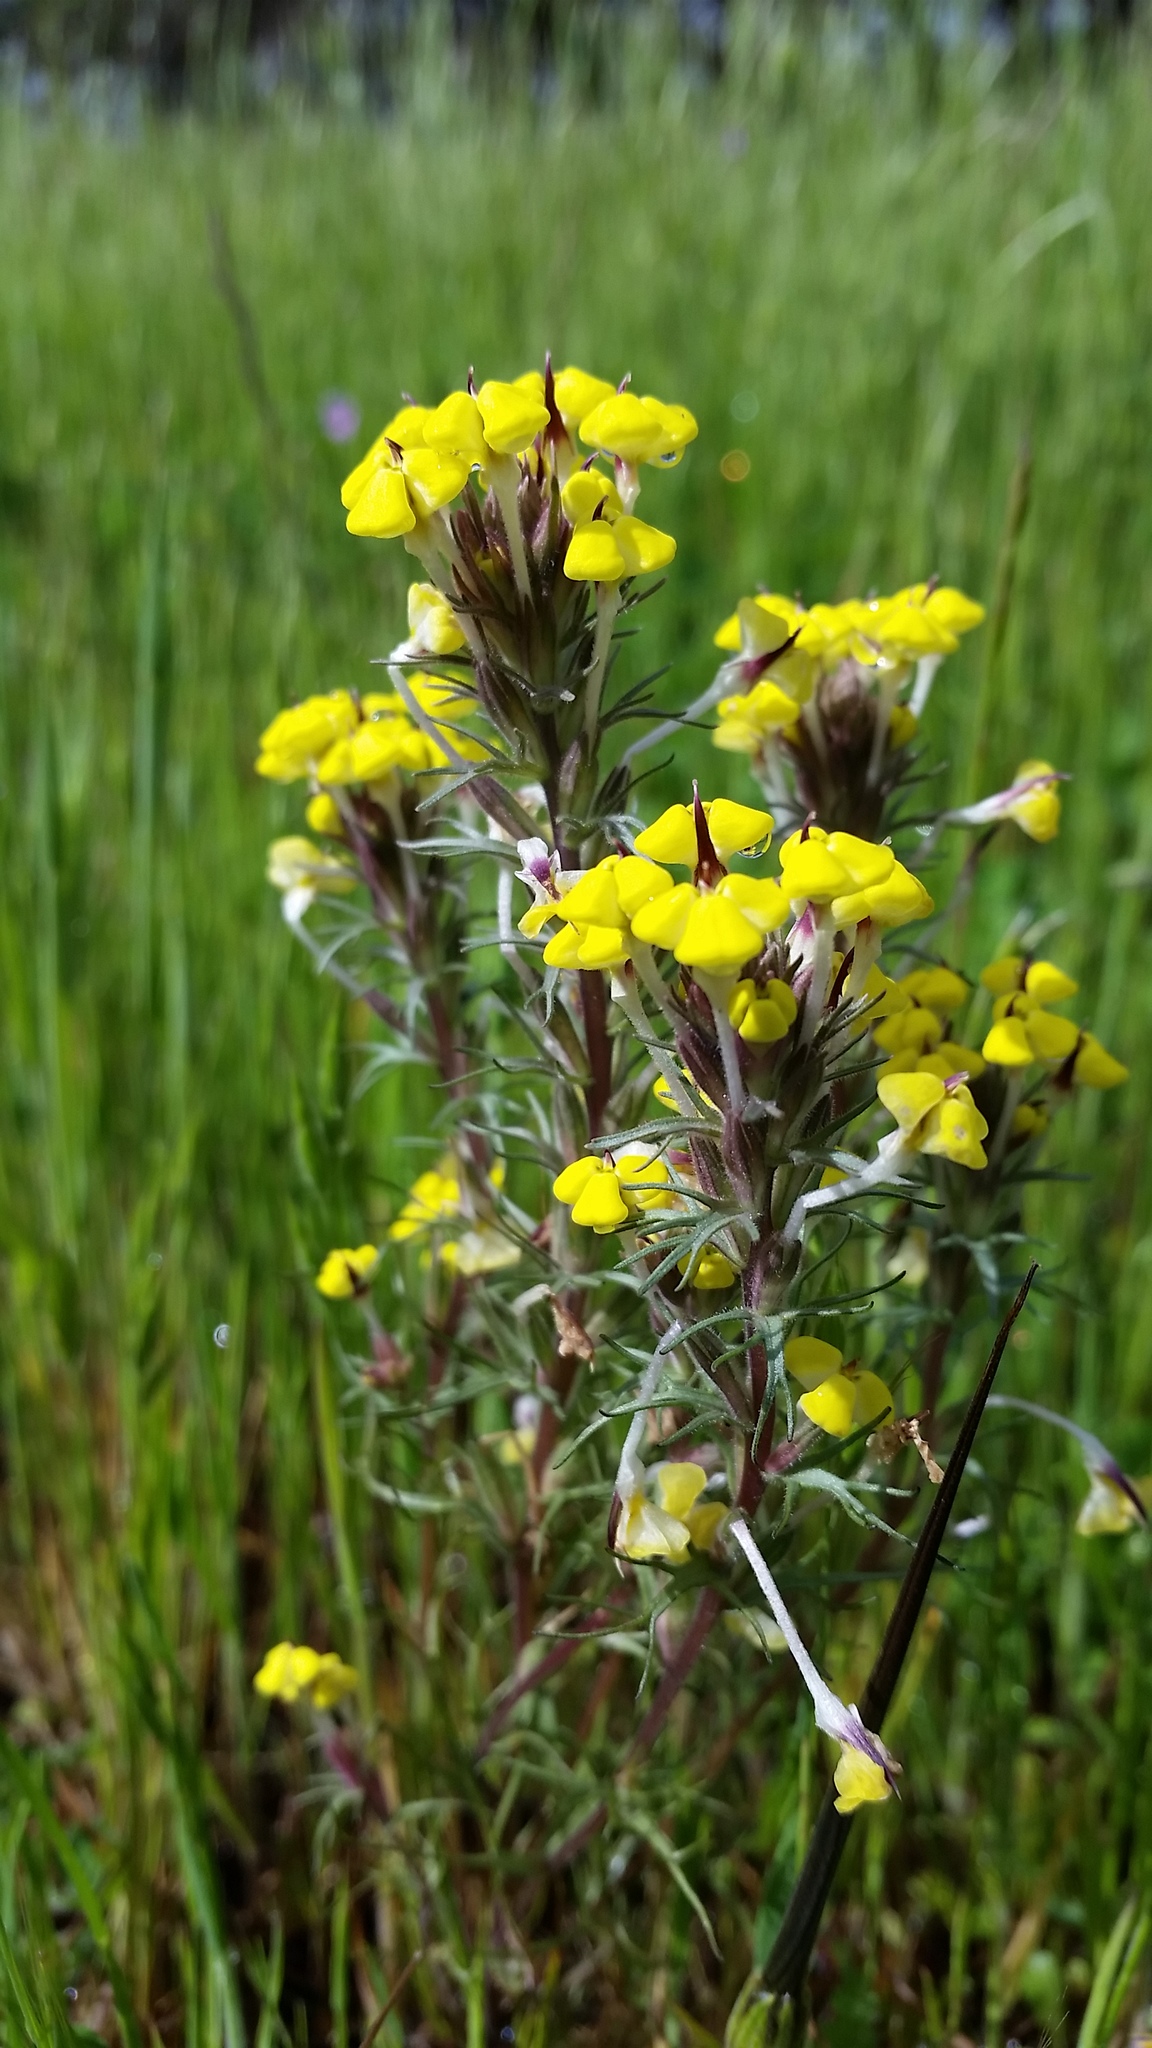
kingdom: Plantae
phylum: Tracheophyta
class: Magnoliopsida
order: Lamiales
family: Orobanchaceae
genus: Triphysaria
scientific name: Triphysaria eriantha
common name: Johnny-tuck
